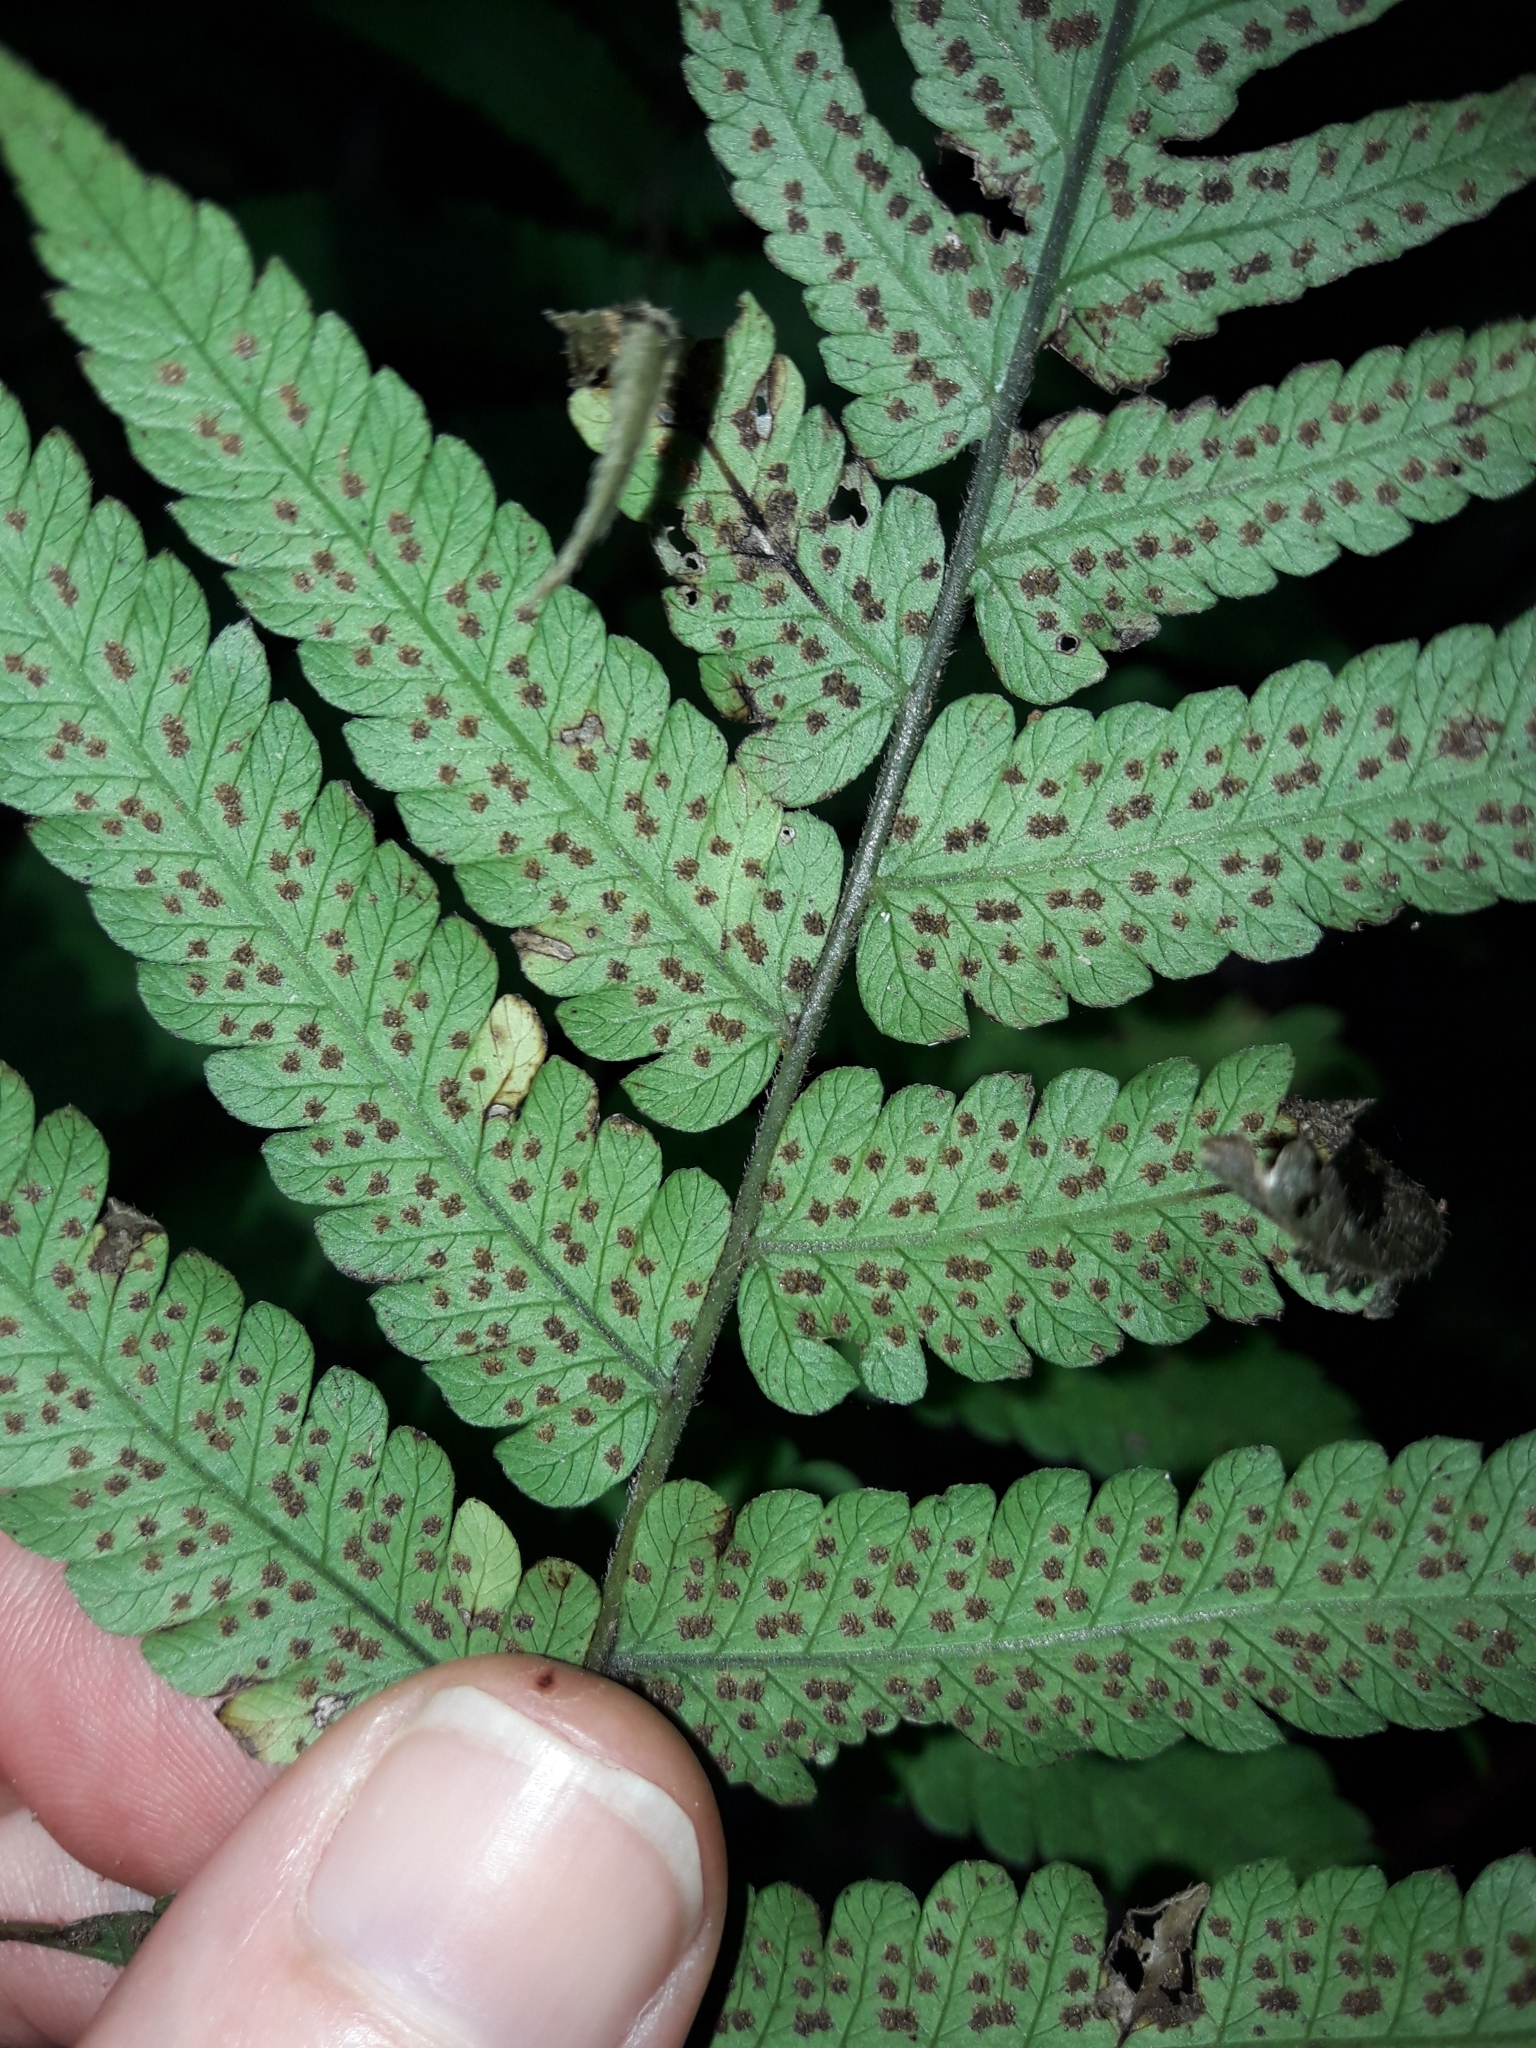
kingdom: Plantae
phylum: Tracheophyta
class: Polypodiopsida
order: Polypodiales
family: Thelypteridaceae
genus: Christella
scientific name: Christella dentata
